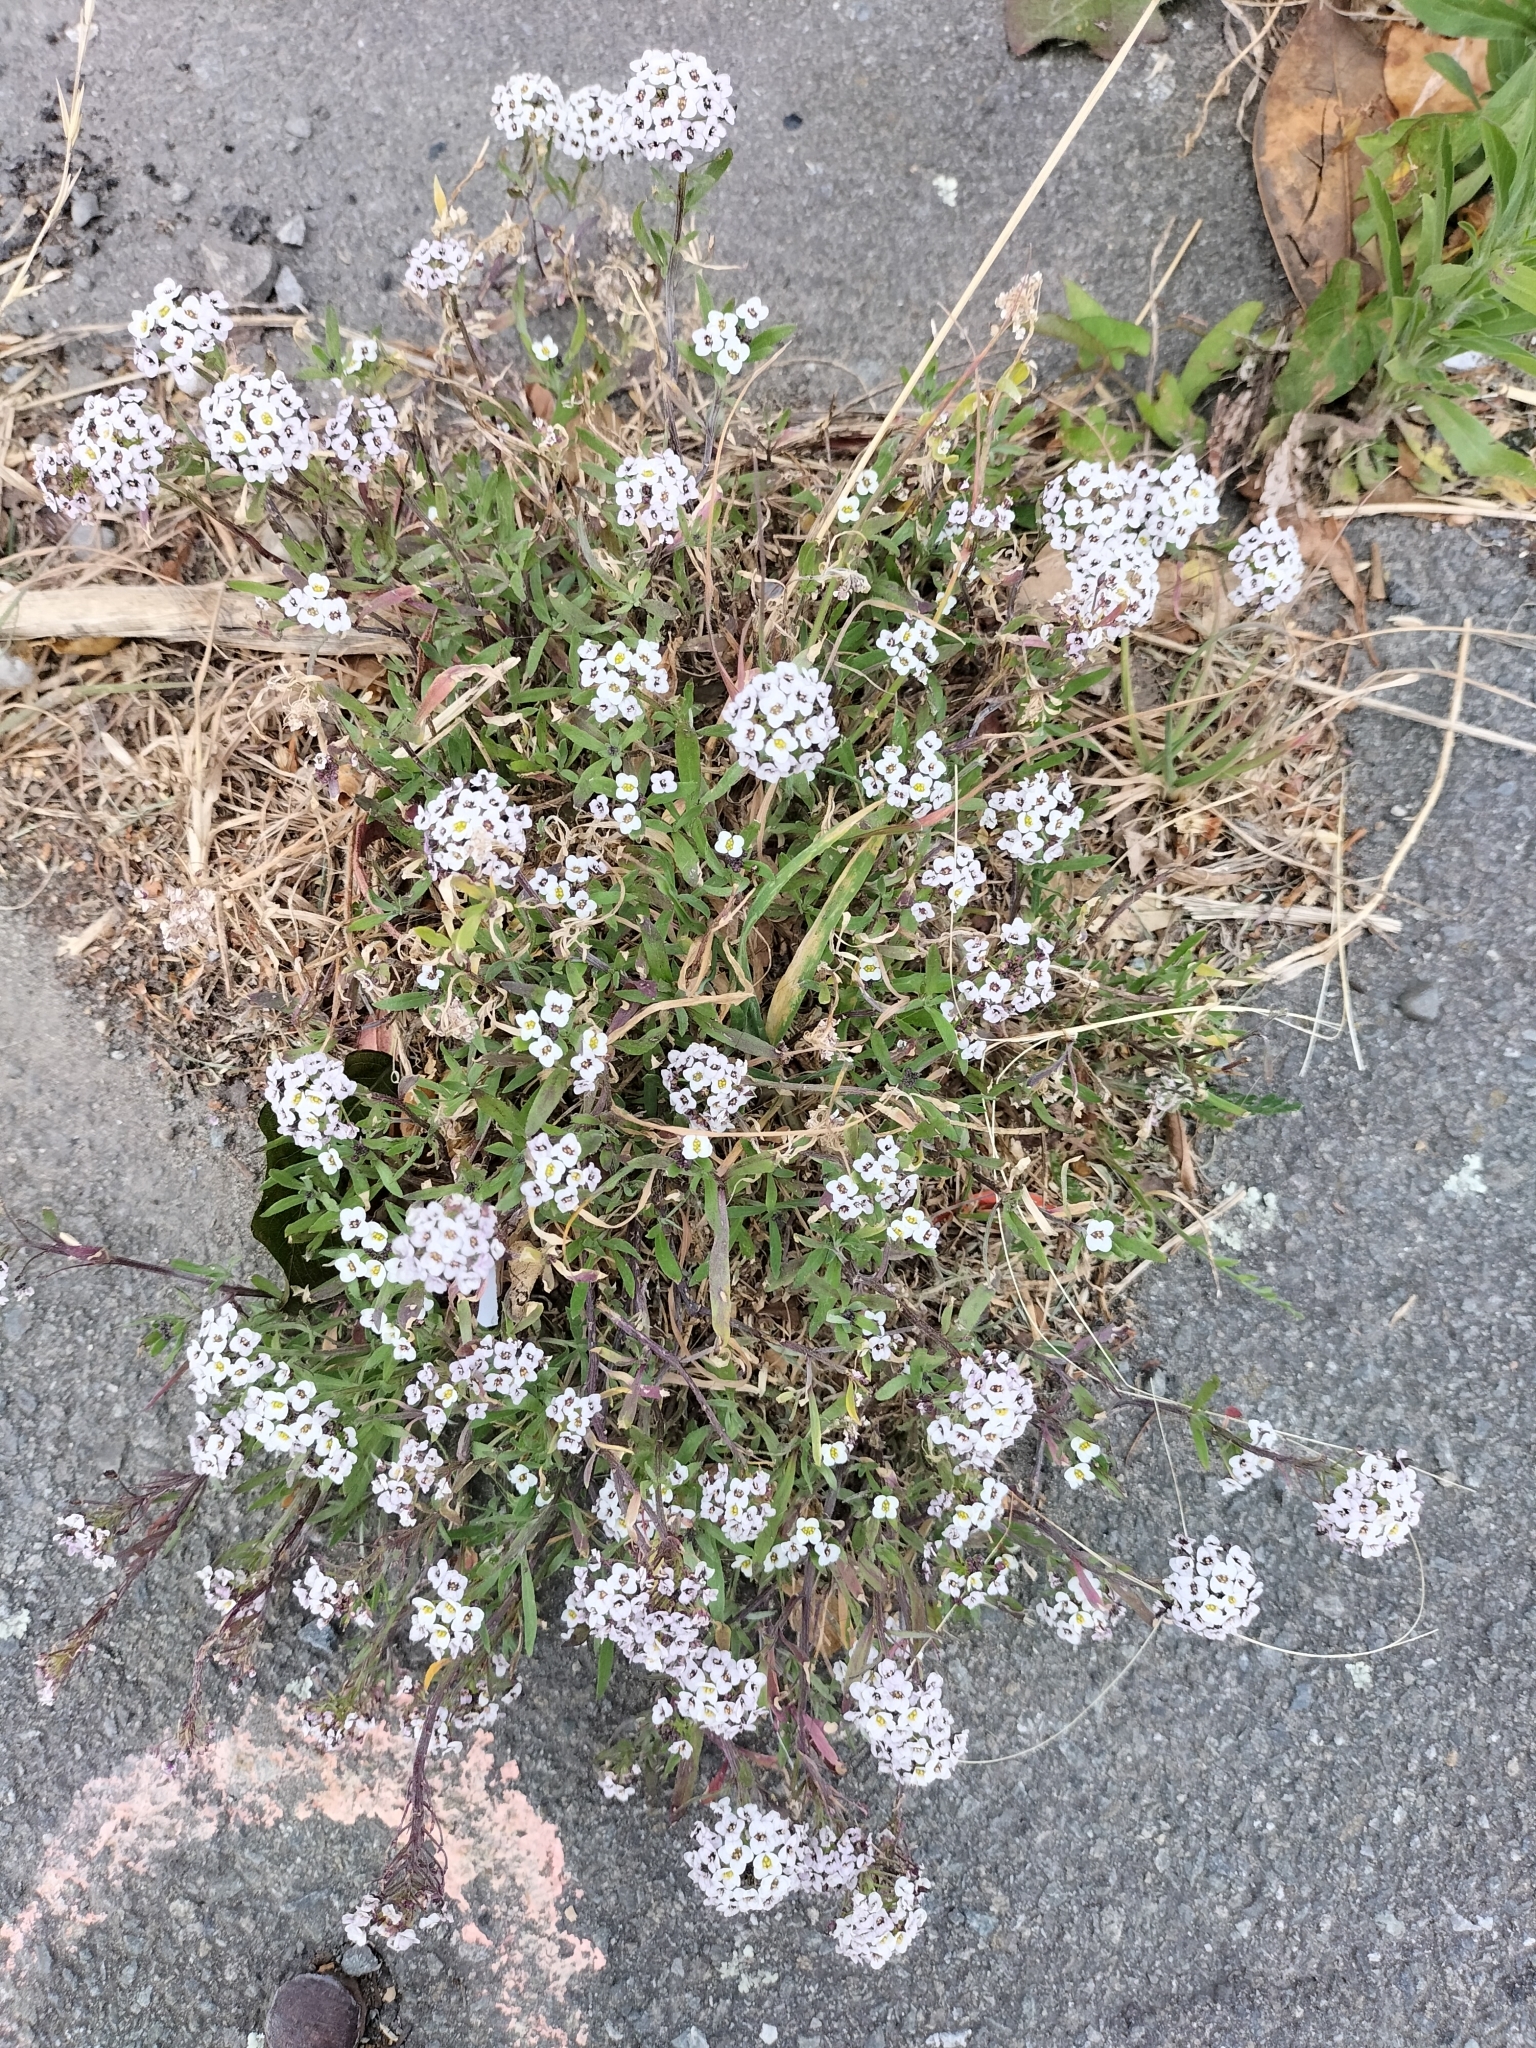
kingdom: Plantae
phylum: Tracheophyta
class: Magnoliopsida
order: Brassicales
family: Brassicaceae
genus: Lobularia
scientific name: Lobularia maritima
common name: Sweet alison
